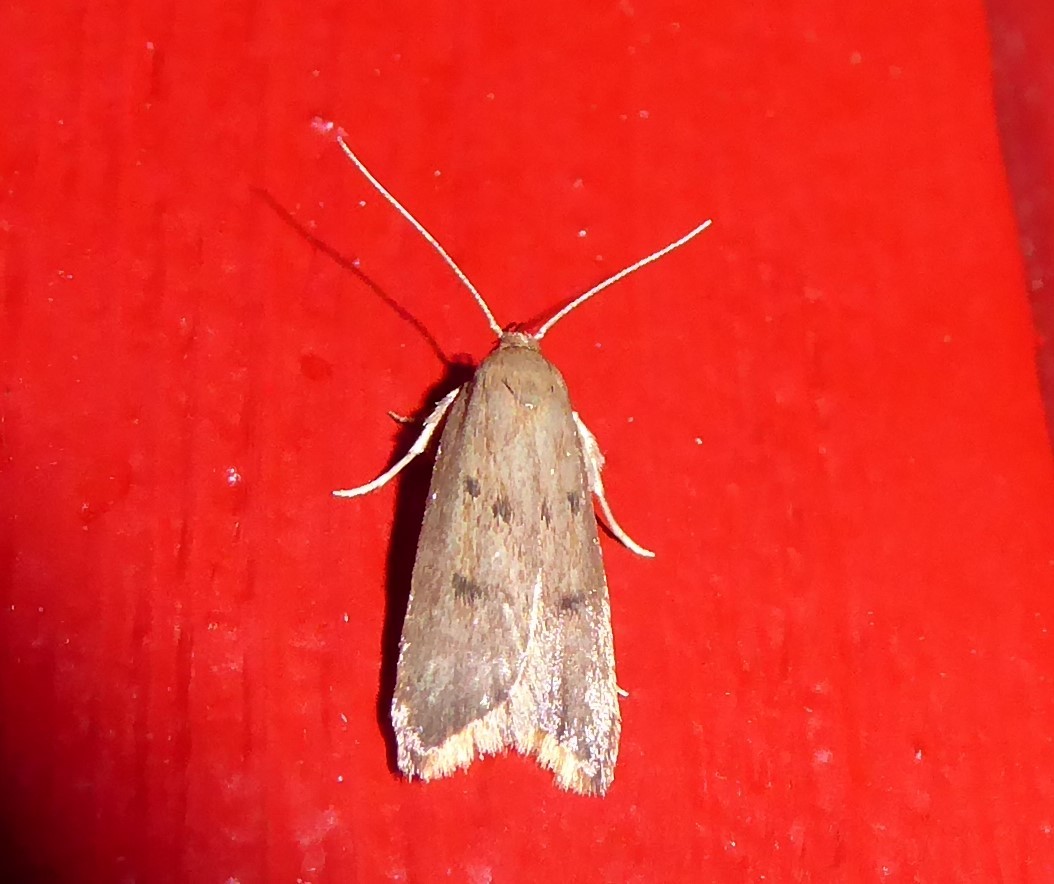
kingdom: Animalia
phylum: Arthropoda
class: Insecta
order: Lepidoptera
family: Oecophoridae
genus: Tachystola
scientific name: Tachystola acroxantha
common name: Ruddy streak
